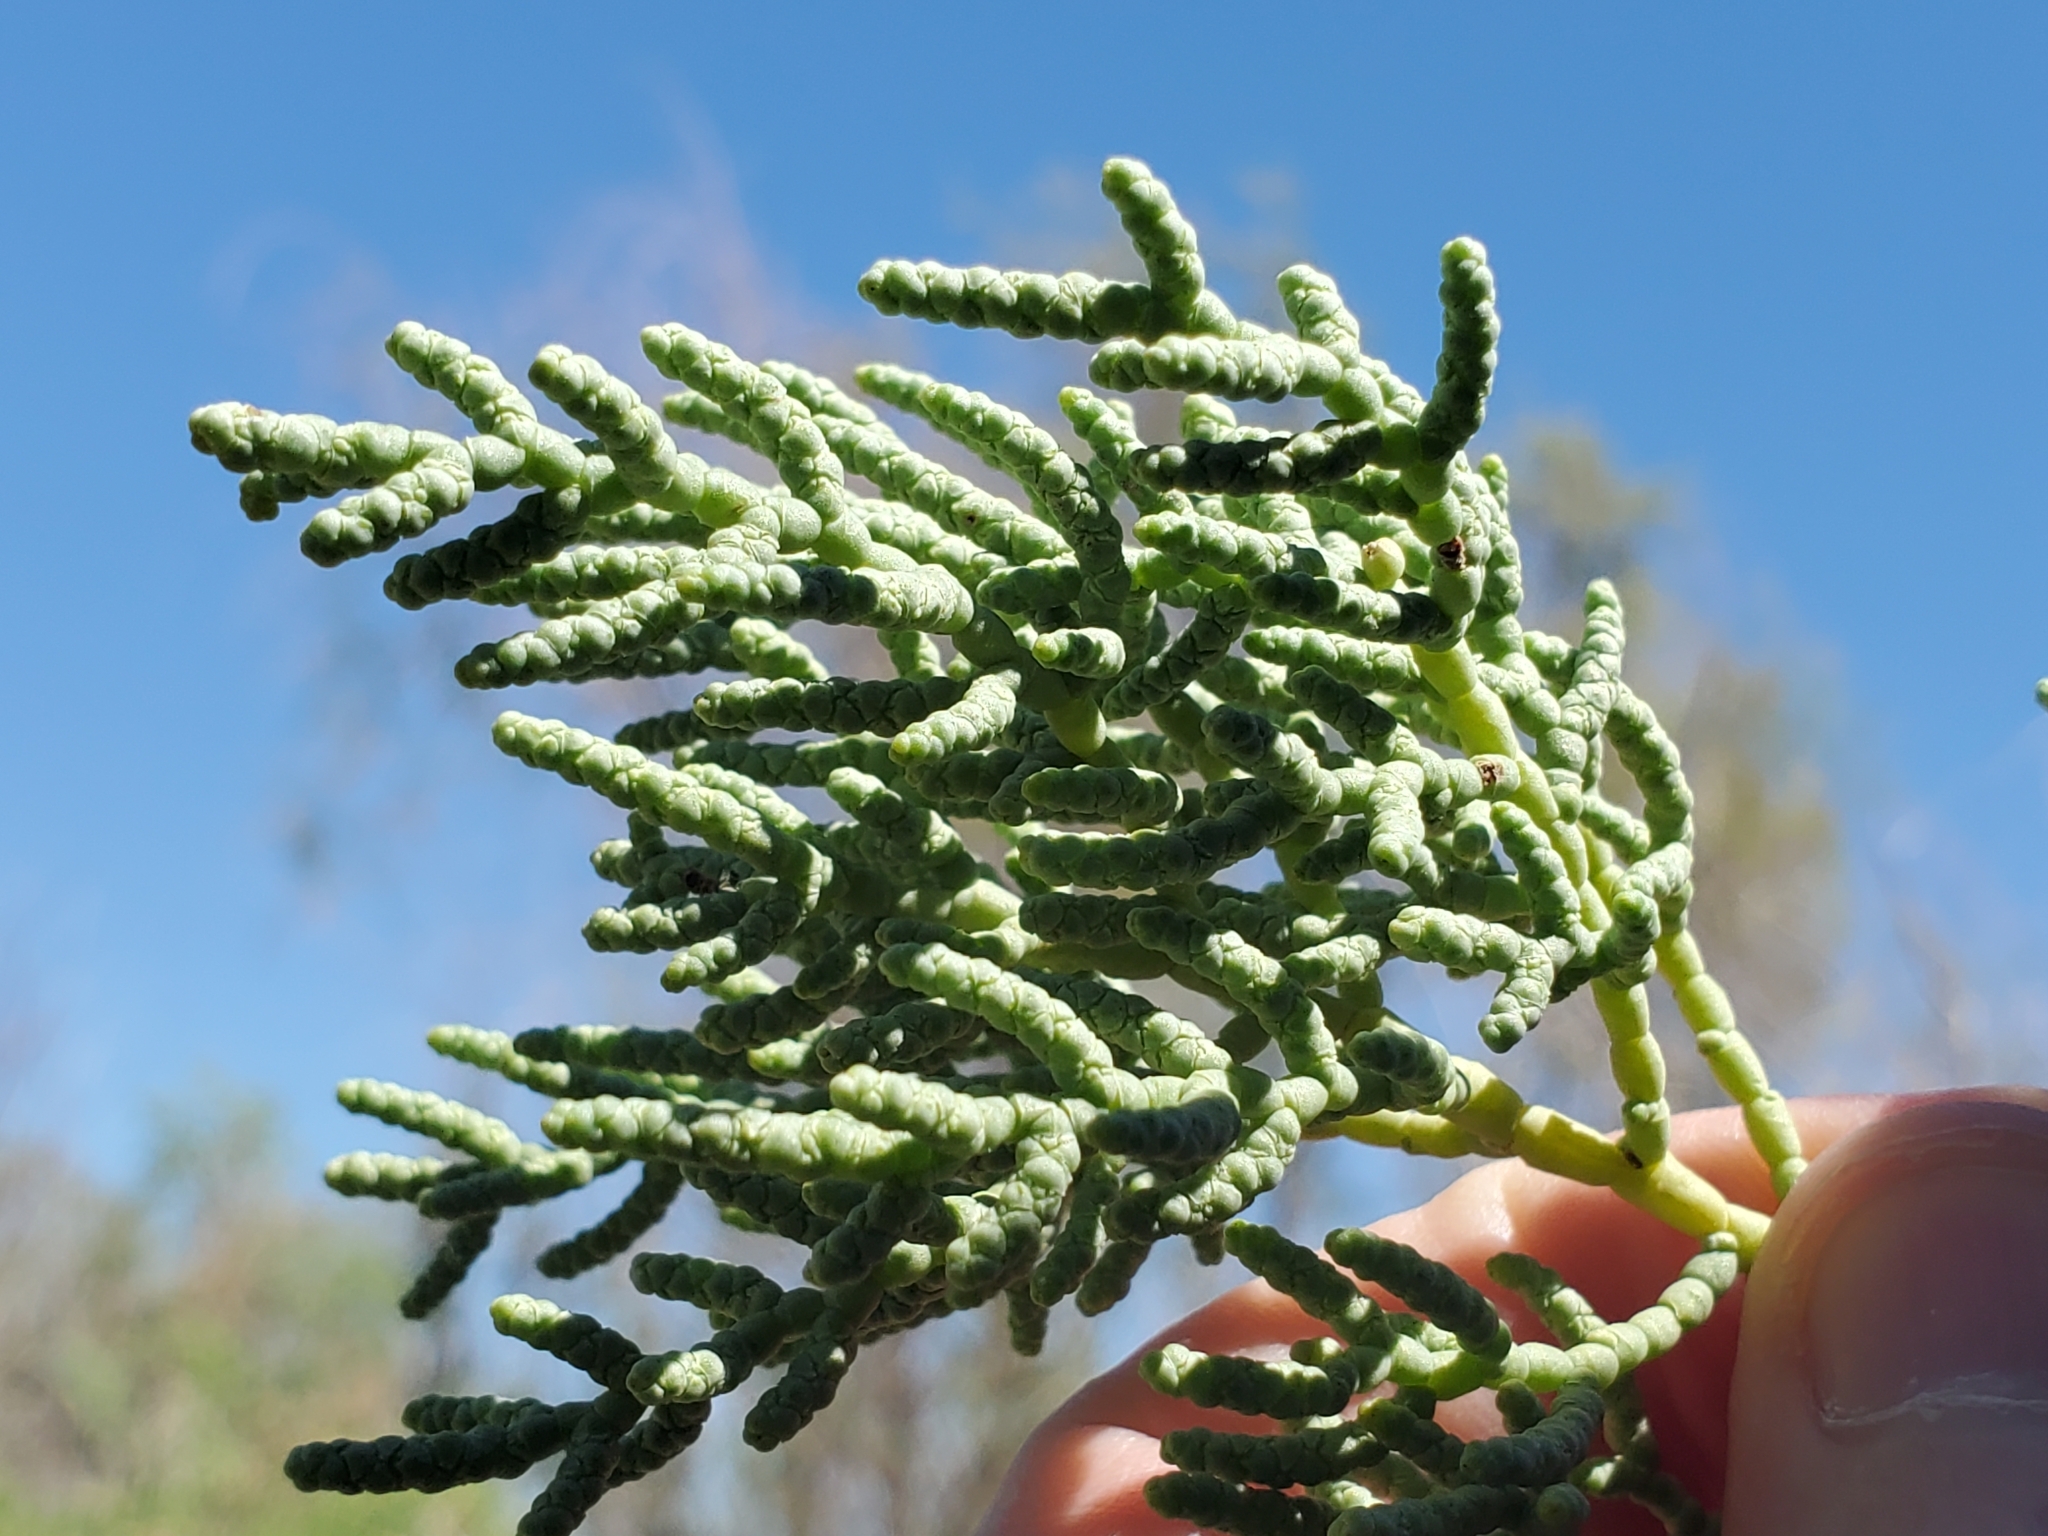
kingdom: Plantae
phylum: Tracheophyta
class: Magnoliopsida
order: Caryophyllales
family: Amaranthaceae
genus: Allenrolfea
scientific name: Allenrolfea occidentalis
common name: Iodine-bush
